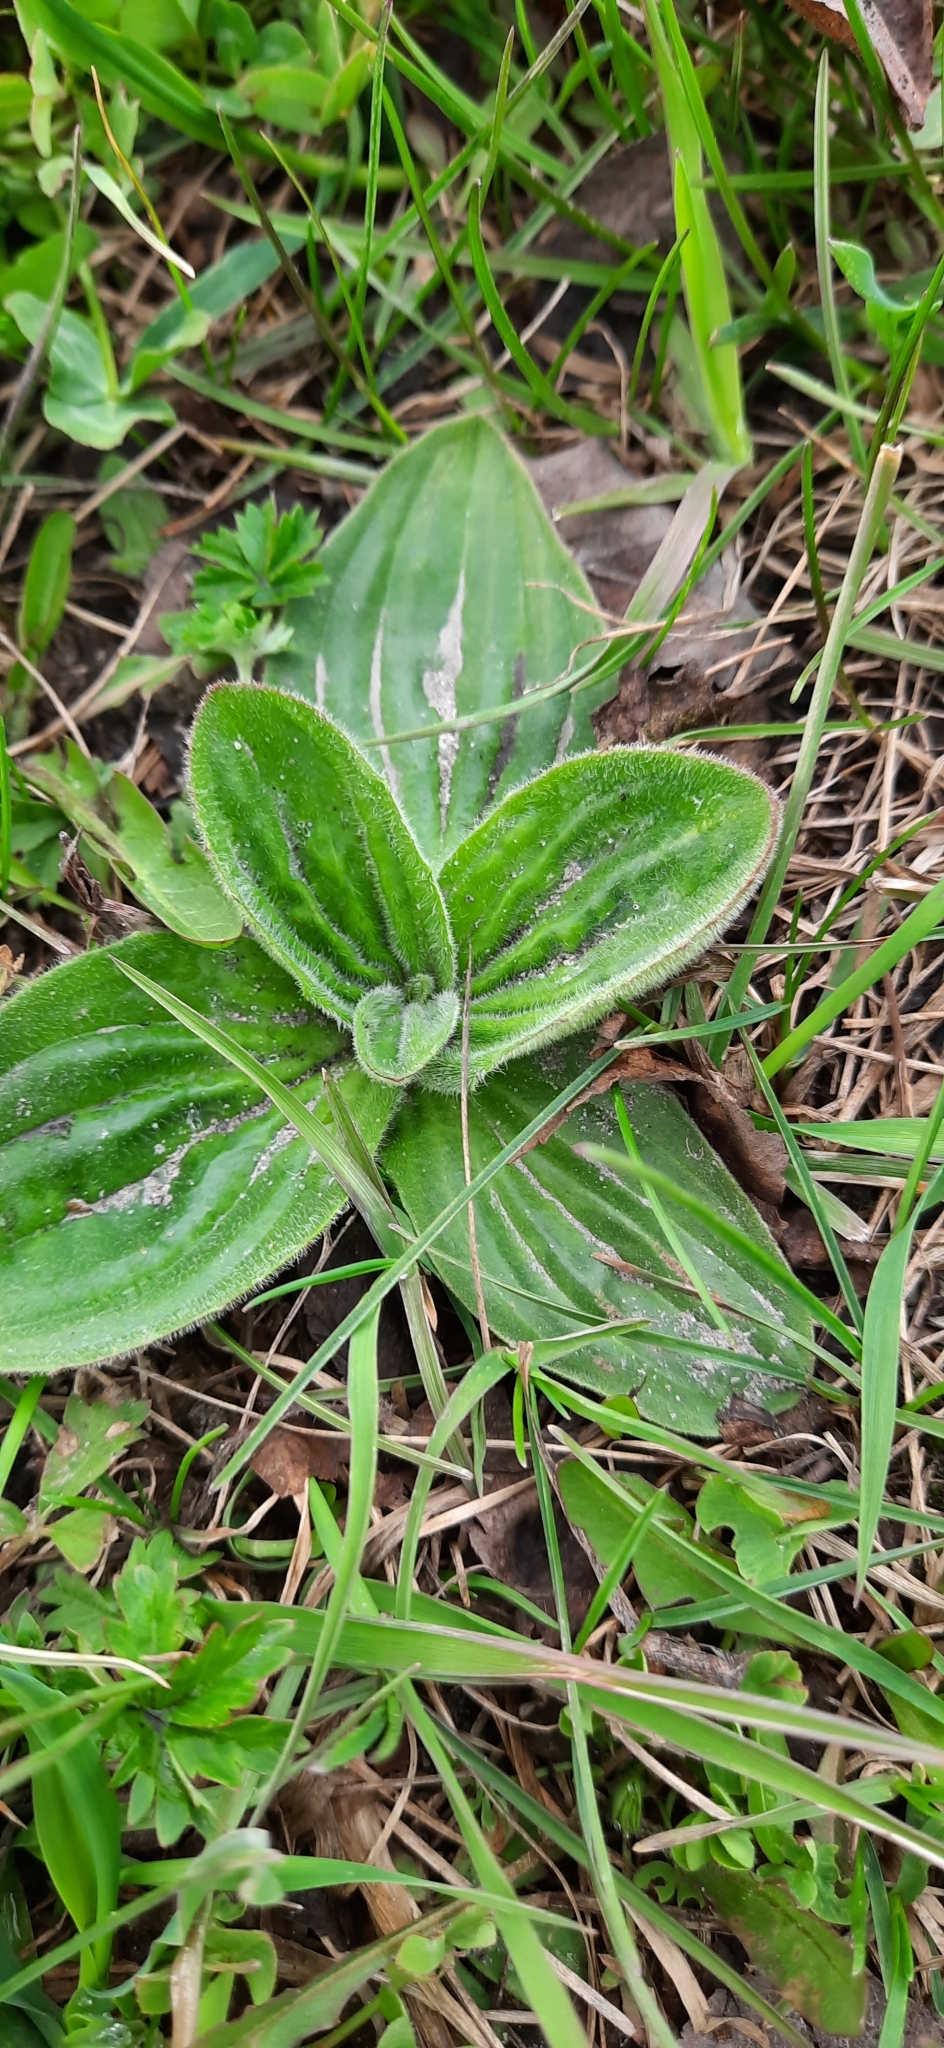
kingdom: Plantae
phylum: Tracheophyta
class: Magnoliopsida
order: Lamiales
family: Plantaginaceae
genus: Plantago
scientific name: Plantago media
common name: Hoary plantain
